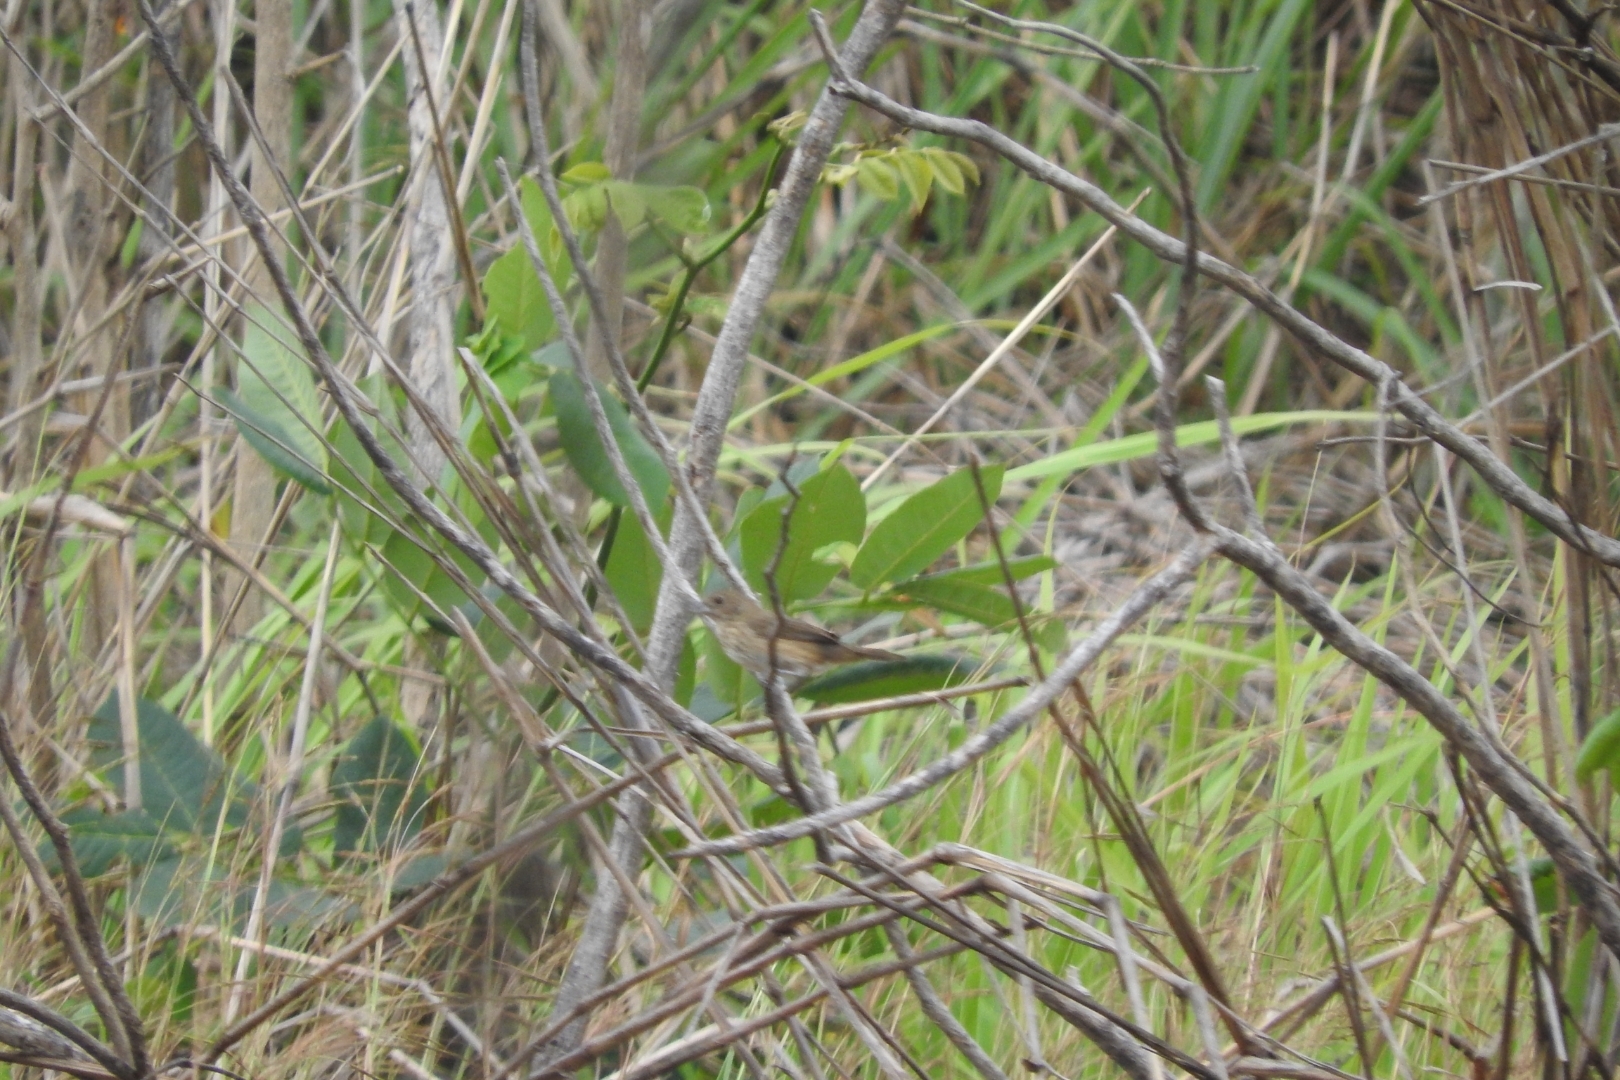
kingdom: Animalia
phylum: Chordata
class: Aves
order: Passeriformes
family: Thraupidae
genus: Volatinia
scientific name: Volatinia jacarina
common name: Blue-black grassquit
